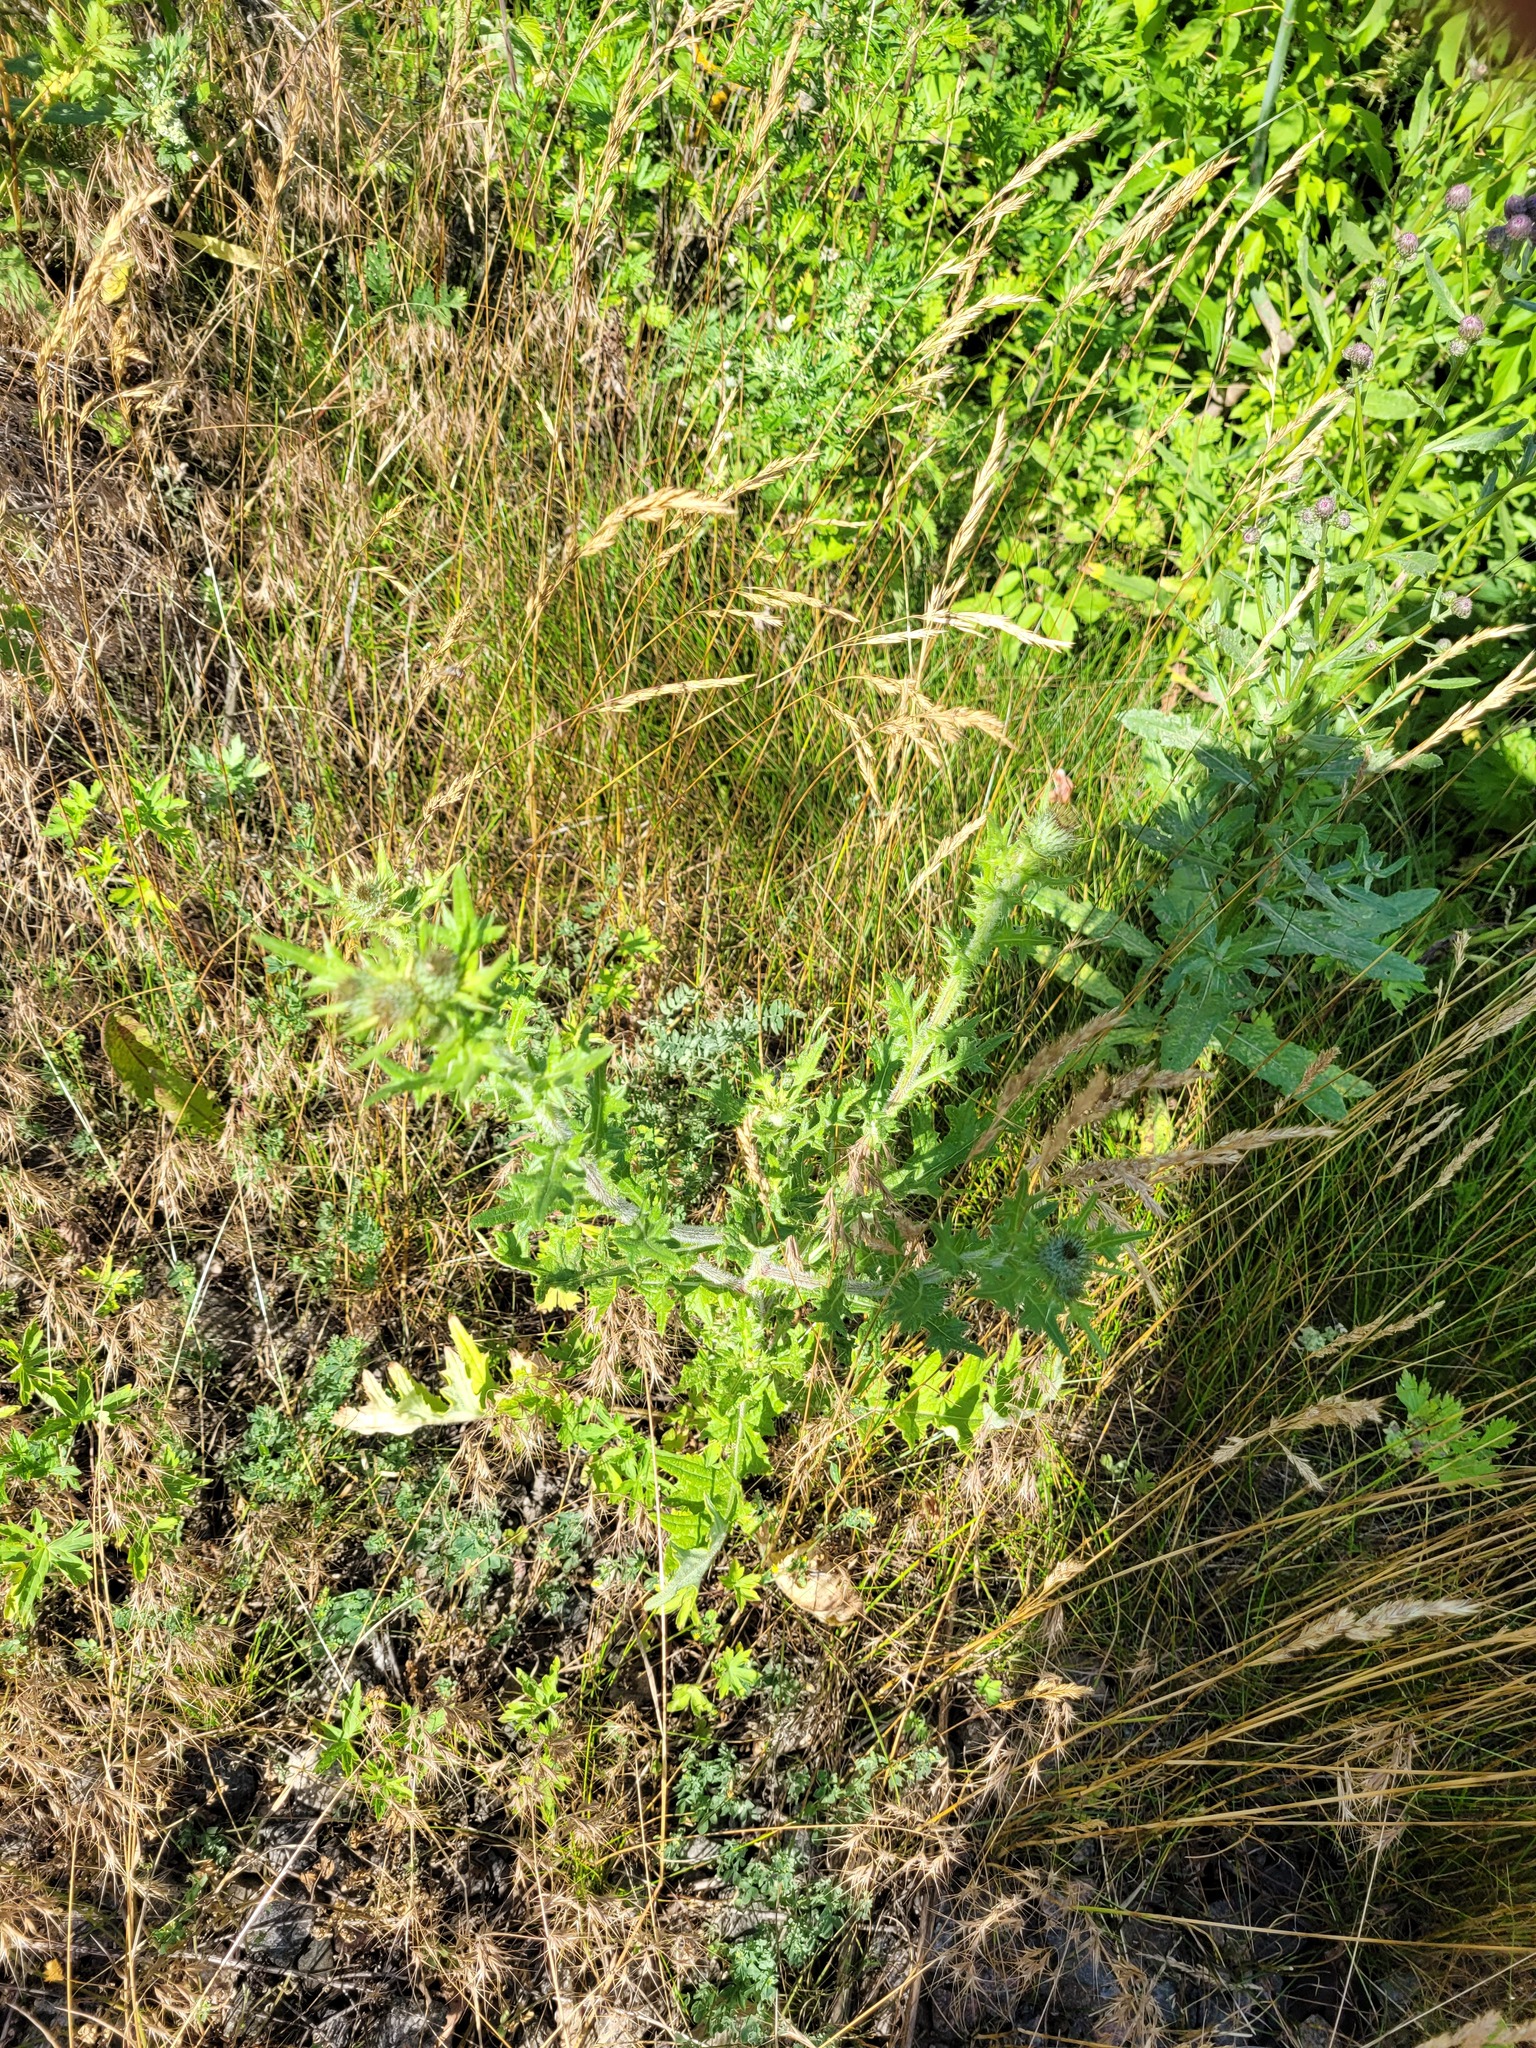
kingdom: Plantae
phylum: Tracheophyta
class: Magnoliopsida
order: Asterales
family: Asteraceae
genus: Cirsium
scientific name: Cirsium vulgare
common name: Bull thistle
